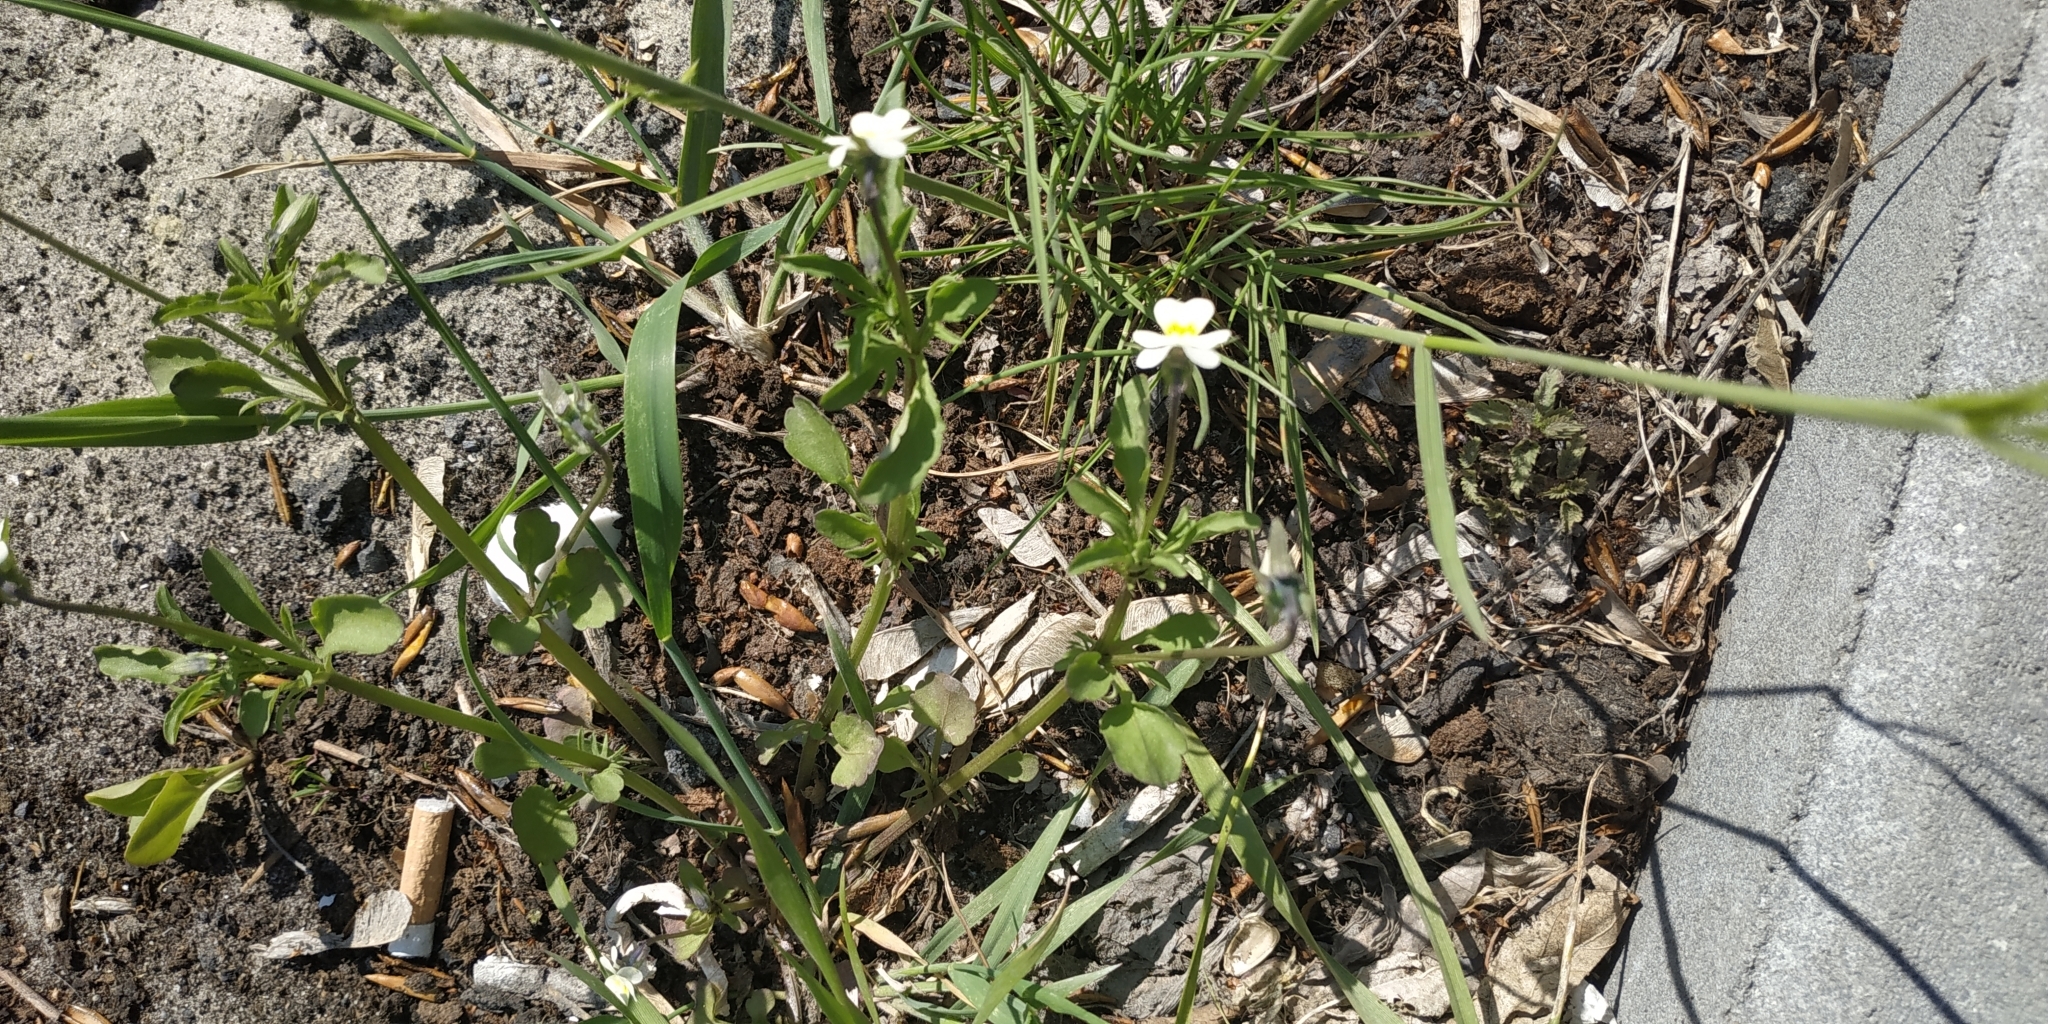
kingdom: Plantae
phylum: Tracheophyta
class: Magnoliopsida
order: Malpighiales
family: Violaceae
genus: Viola
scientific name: Viola arvensis
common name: Field pansy
